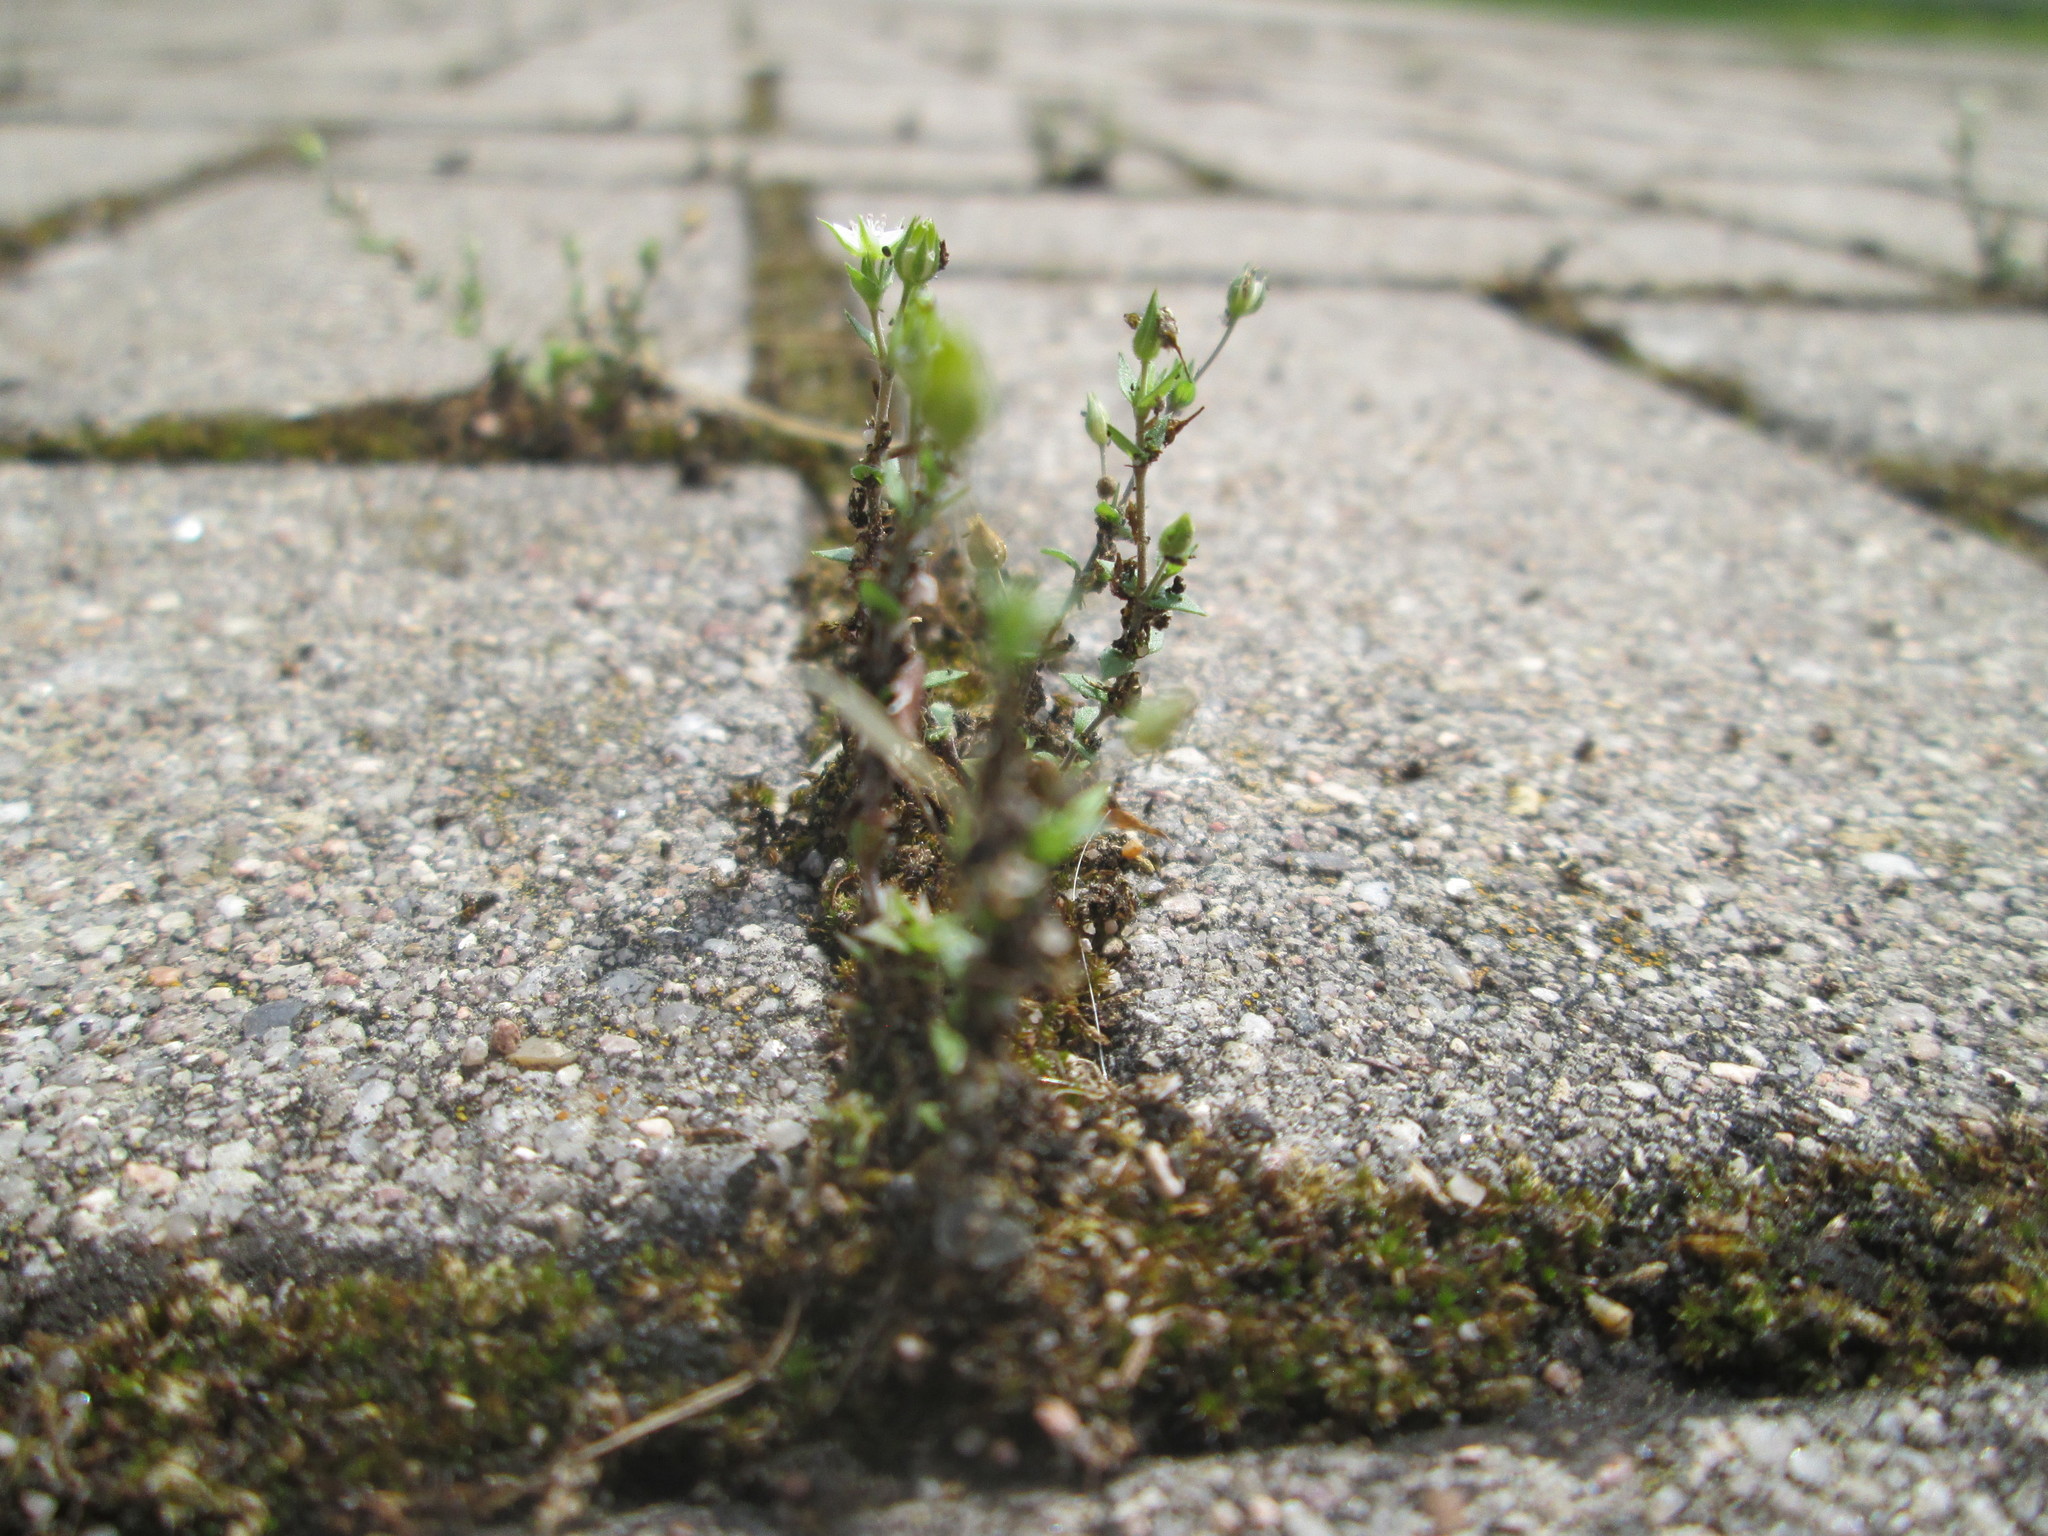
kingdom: Plantae
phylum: Tracheophyta
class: Magnoliopsida
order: Caryophyllales
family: Caryophyllaceae
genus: Arenaria
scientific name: Arenaria serpyllifolia
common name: Thyme-leaved sandwort
